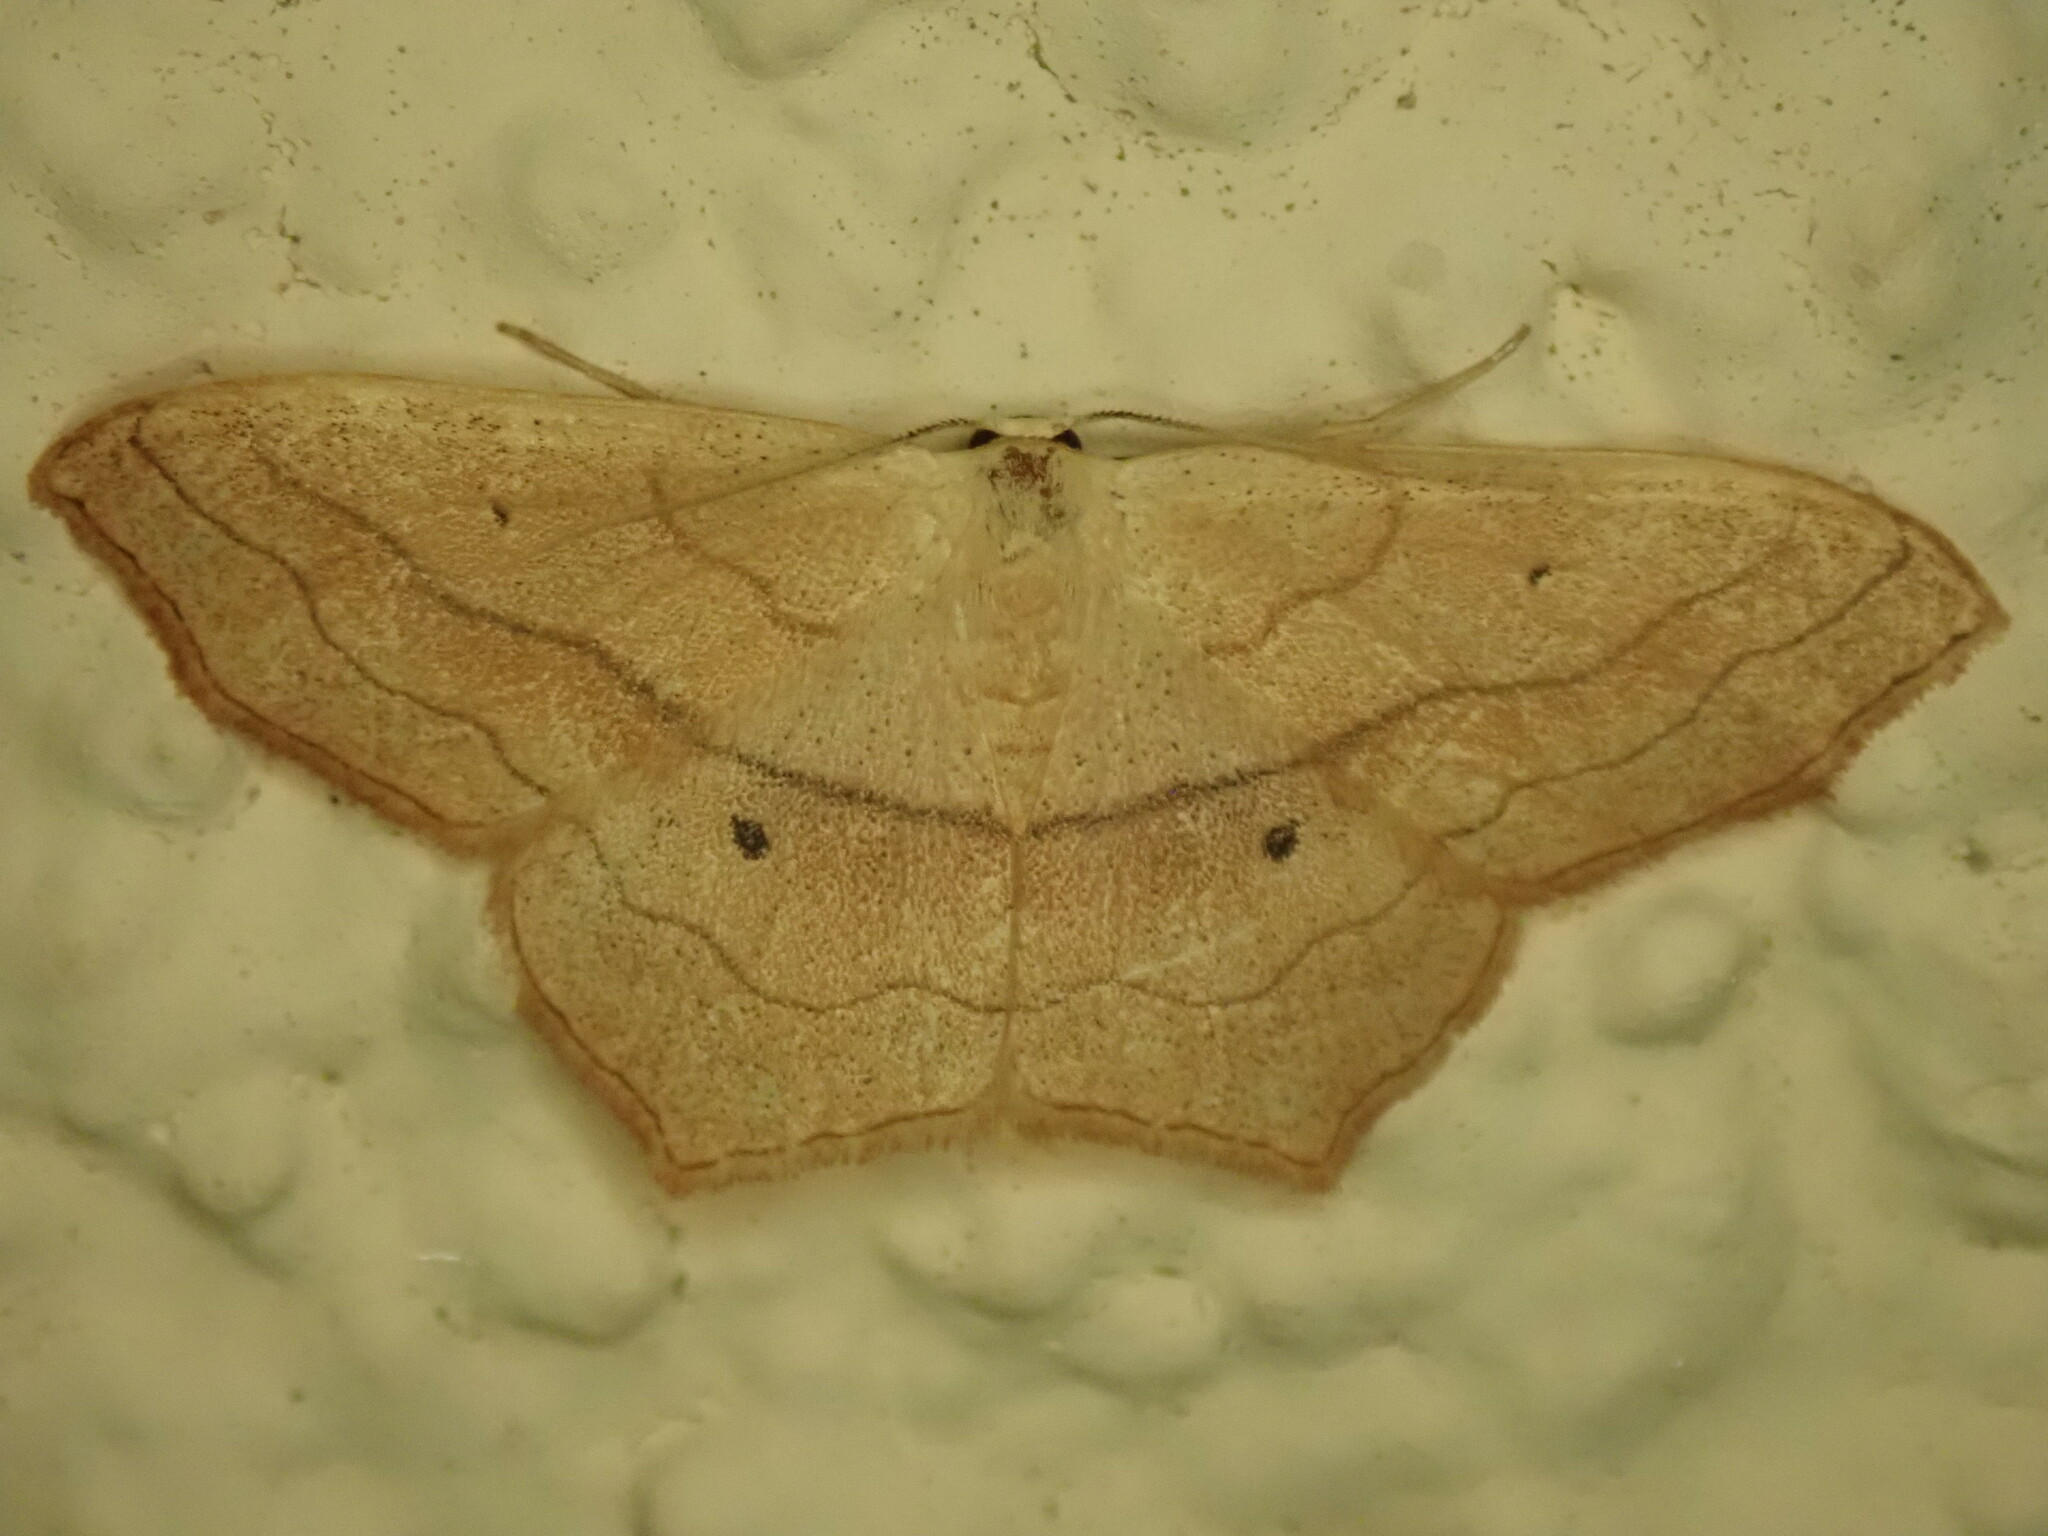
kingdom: Animalia
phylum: Arthropoda
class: Insecta
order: Lepidoptera
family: Geometridae
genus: Scopula
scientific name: Scopula imitaria
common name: Small blood-vein
